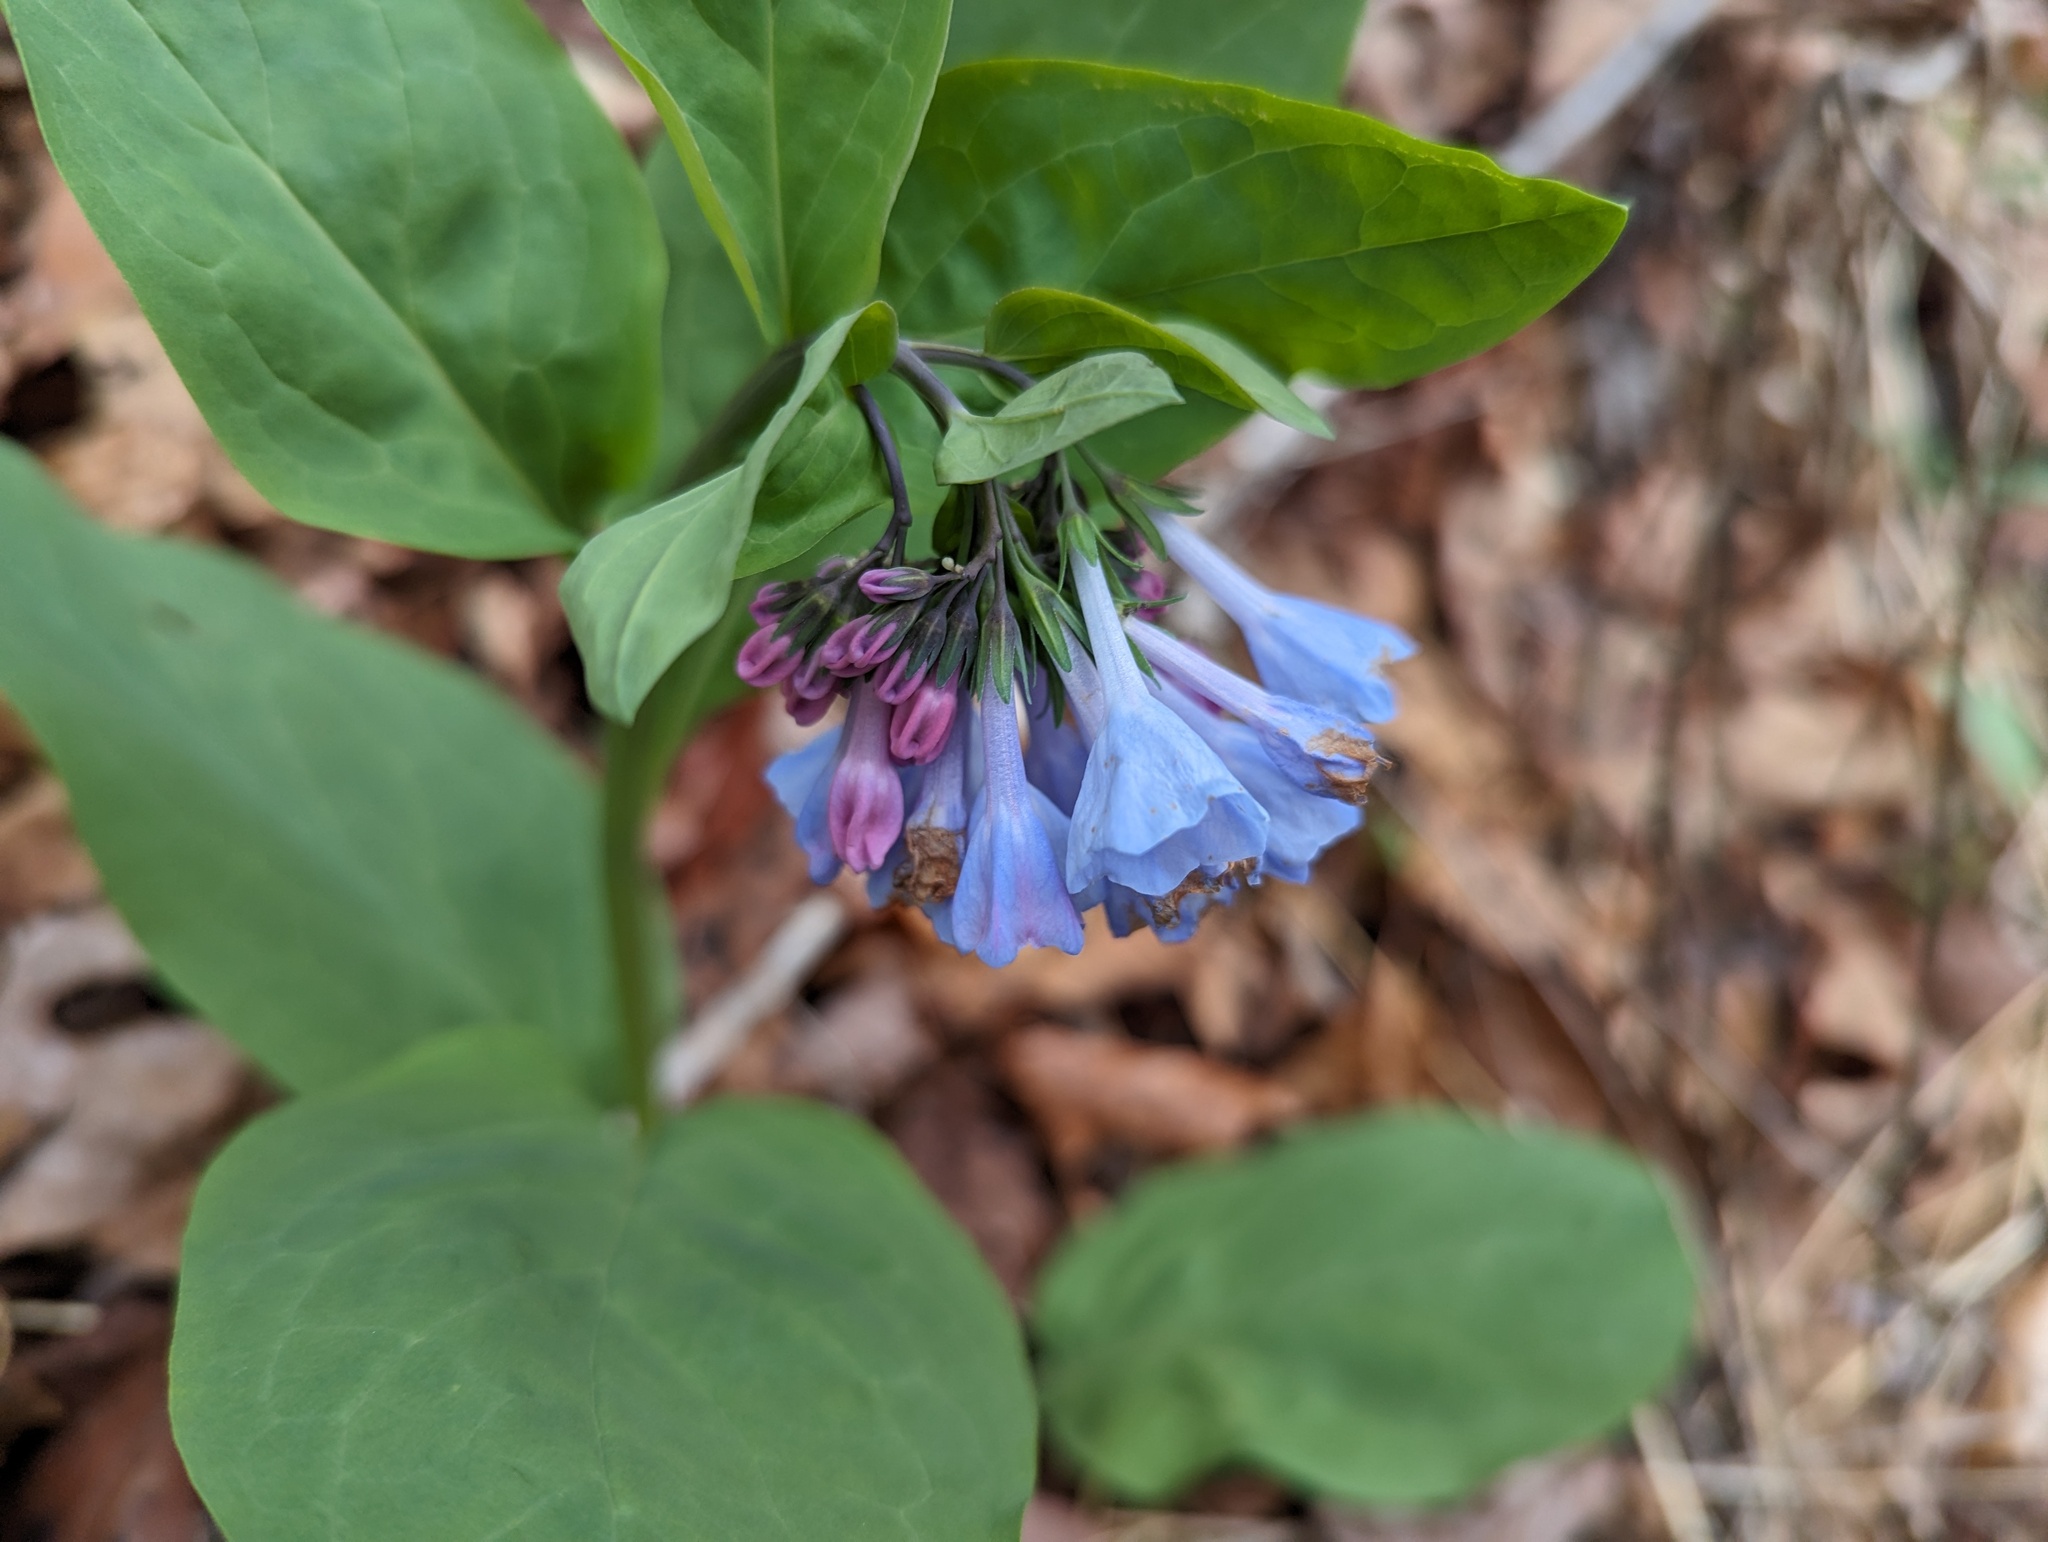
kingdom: Plantae
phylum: Tracheophyta
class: Magnoliopsida
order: Boraginales
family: Boraginaceae
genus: Mertensia
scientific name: Mertensia virginica
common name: Virginia bluebells
